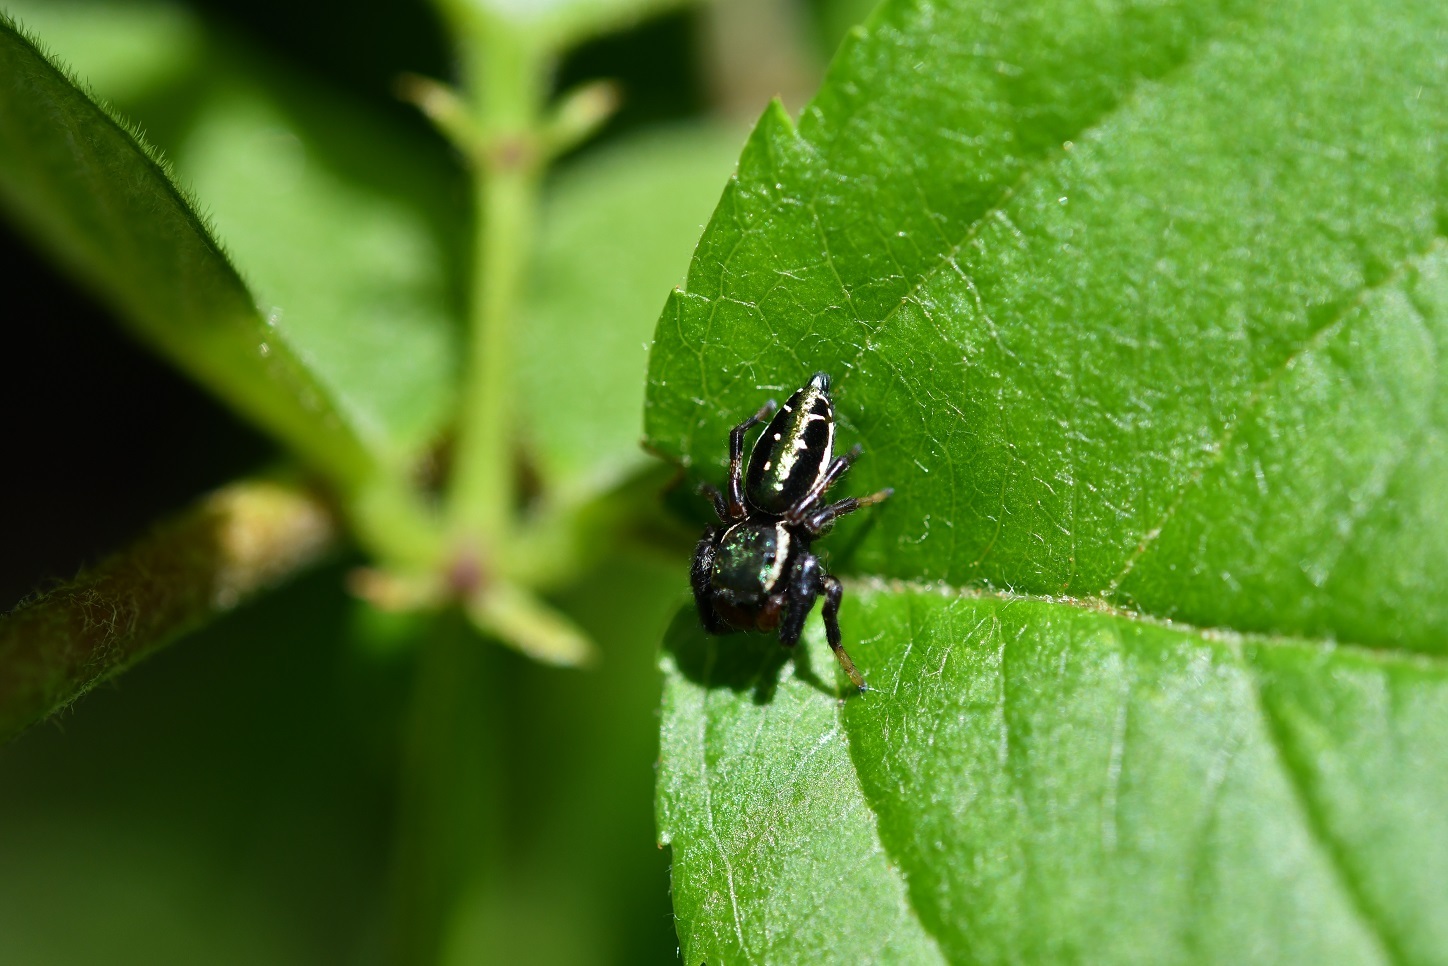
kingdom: Animalia
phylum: Arthropoda
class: Arachnida
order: Araneae
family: Salticidae
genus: Paraphidippus
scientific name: Paraphidippus aurantius
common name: Jumping spiders
